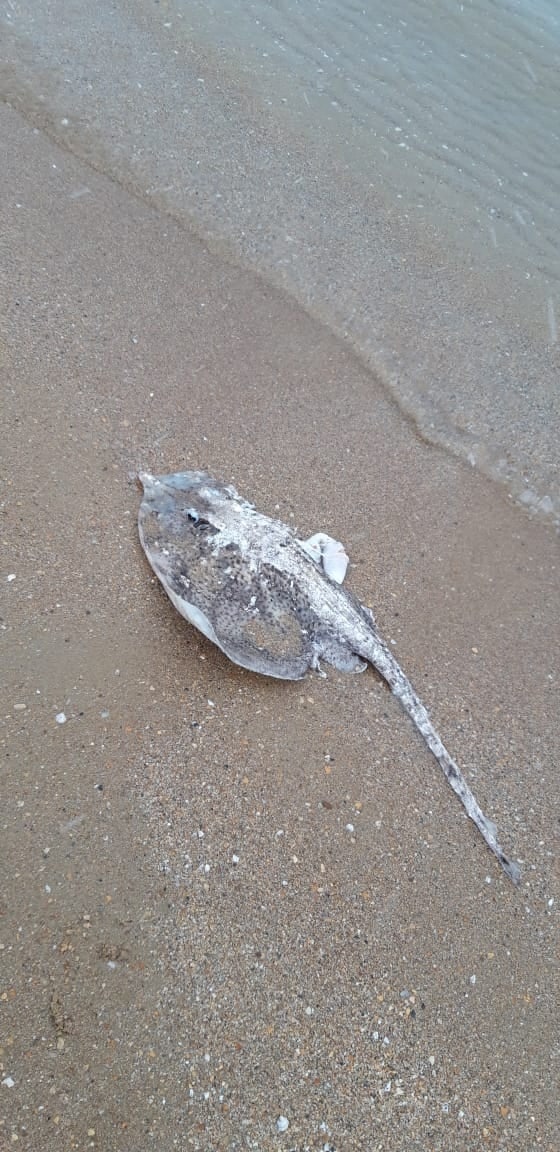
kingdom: Animalia
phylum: Chordata
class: Elasmobranchii
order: Rajiformes
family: Rajidae
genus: Raja
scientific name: Raja clavata
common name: Thornback ray
